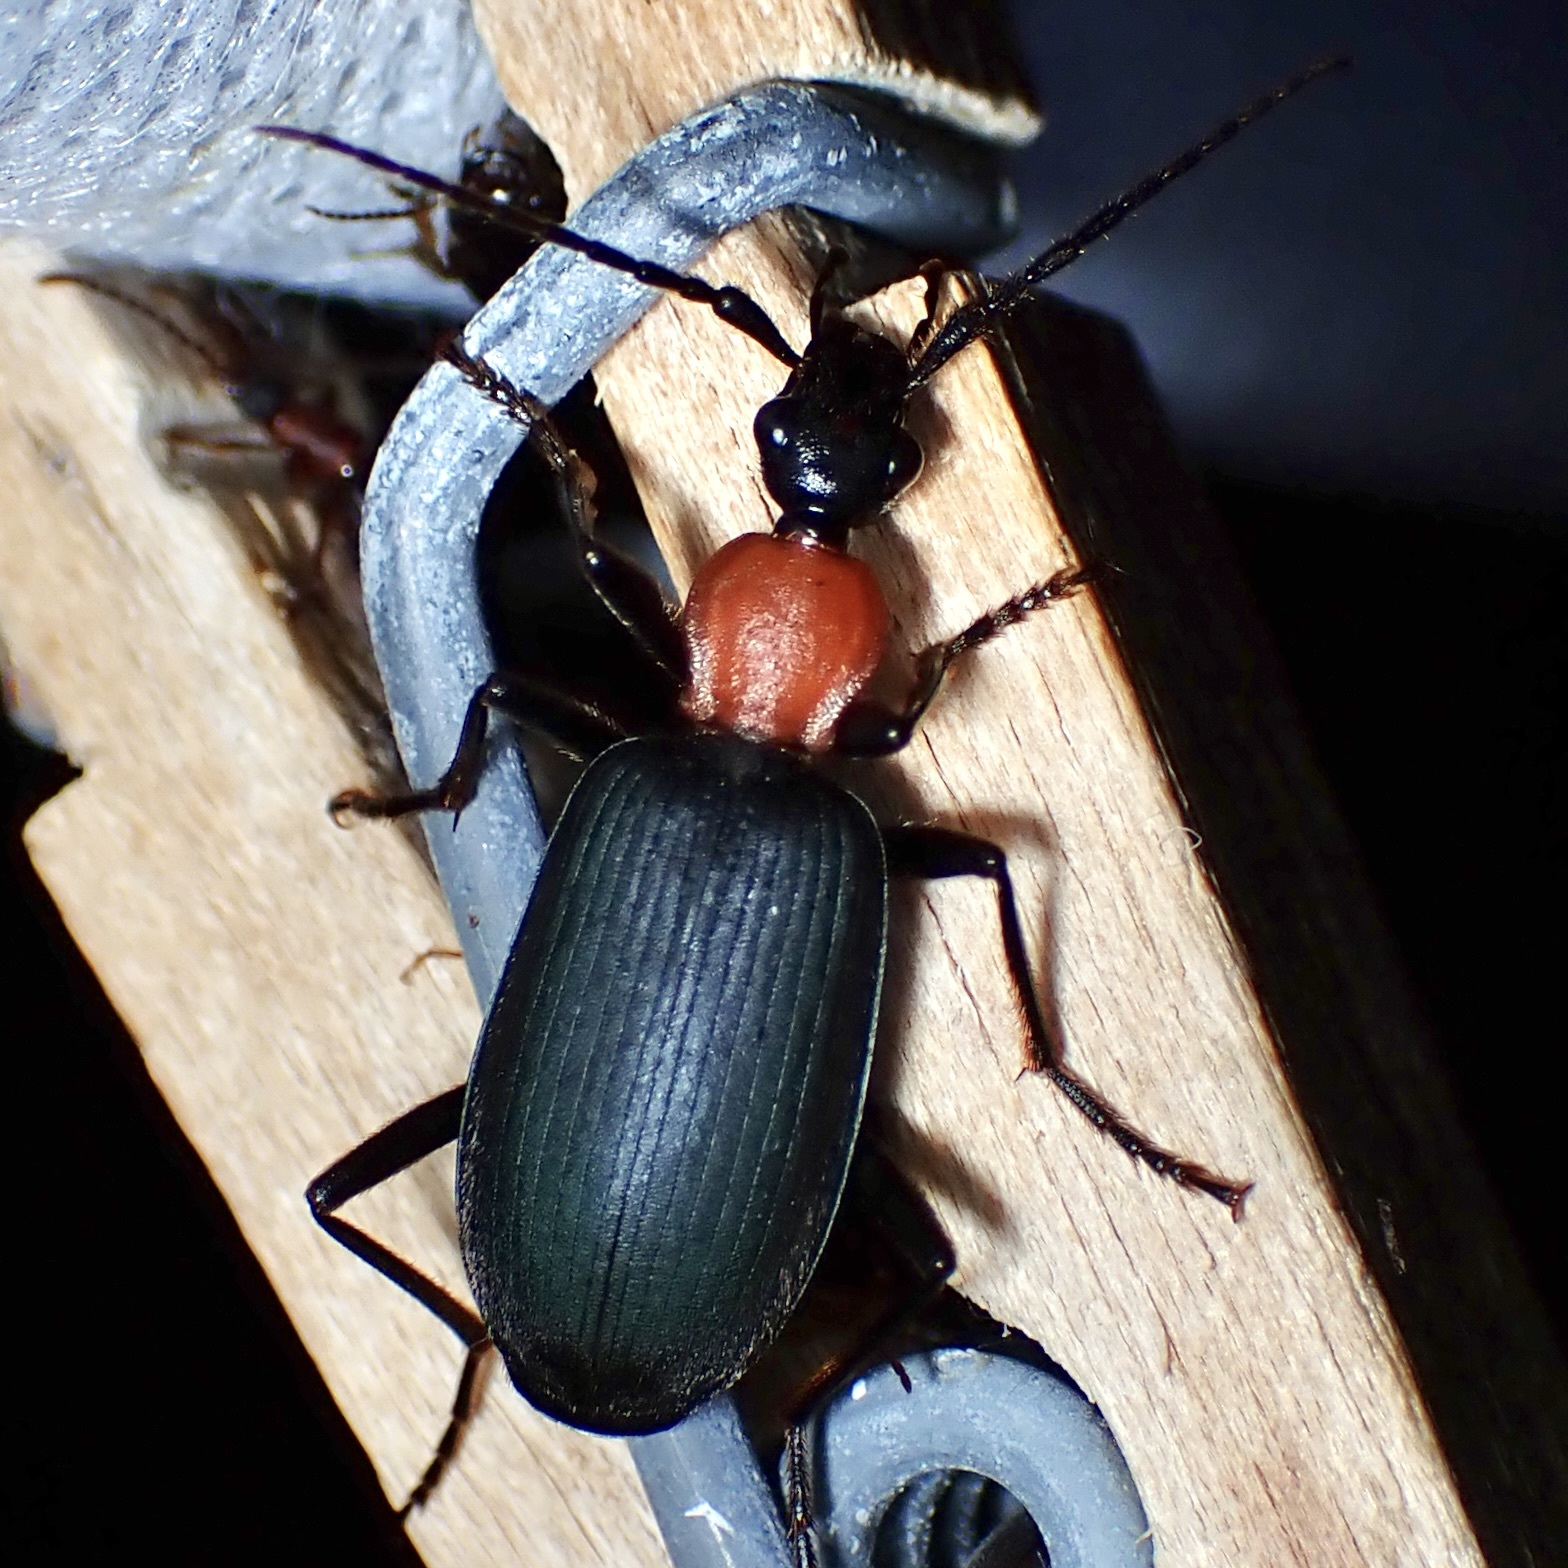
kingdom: Animalia
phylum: Arthropoda
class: Insecta
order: Coleoptera
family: Carabidae
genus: Galerita
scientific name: Galerita mexicana
